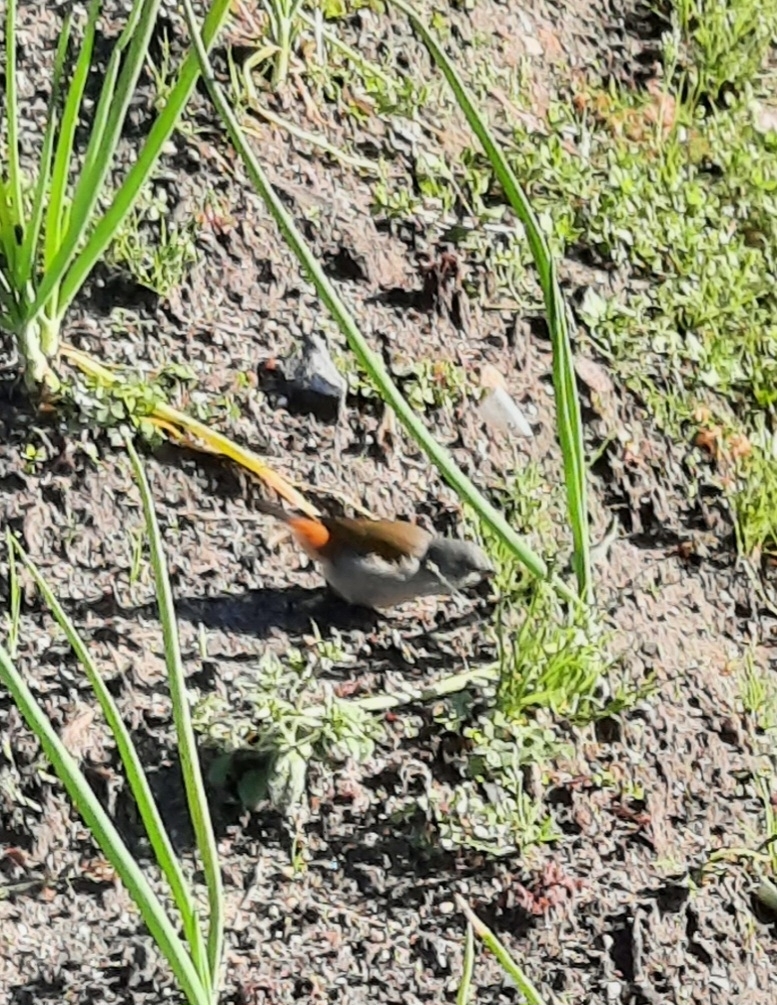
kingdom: Animalia
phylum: Chordata
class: Aves
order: Passeriformes
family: Estrildidae
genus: Coccopygia
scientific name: Coccopygia melanotis
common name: Swee waxbill
